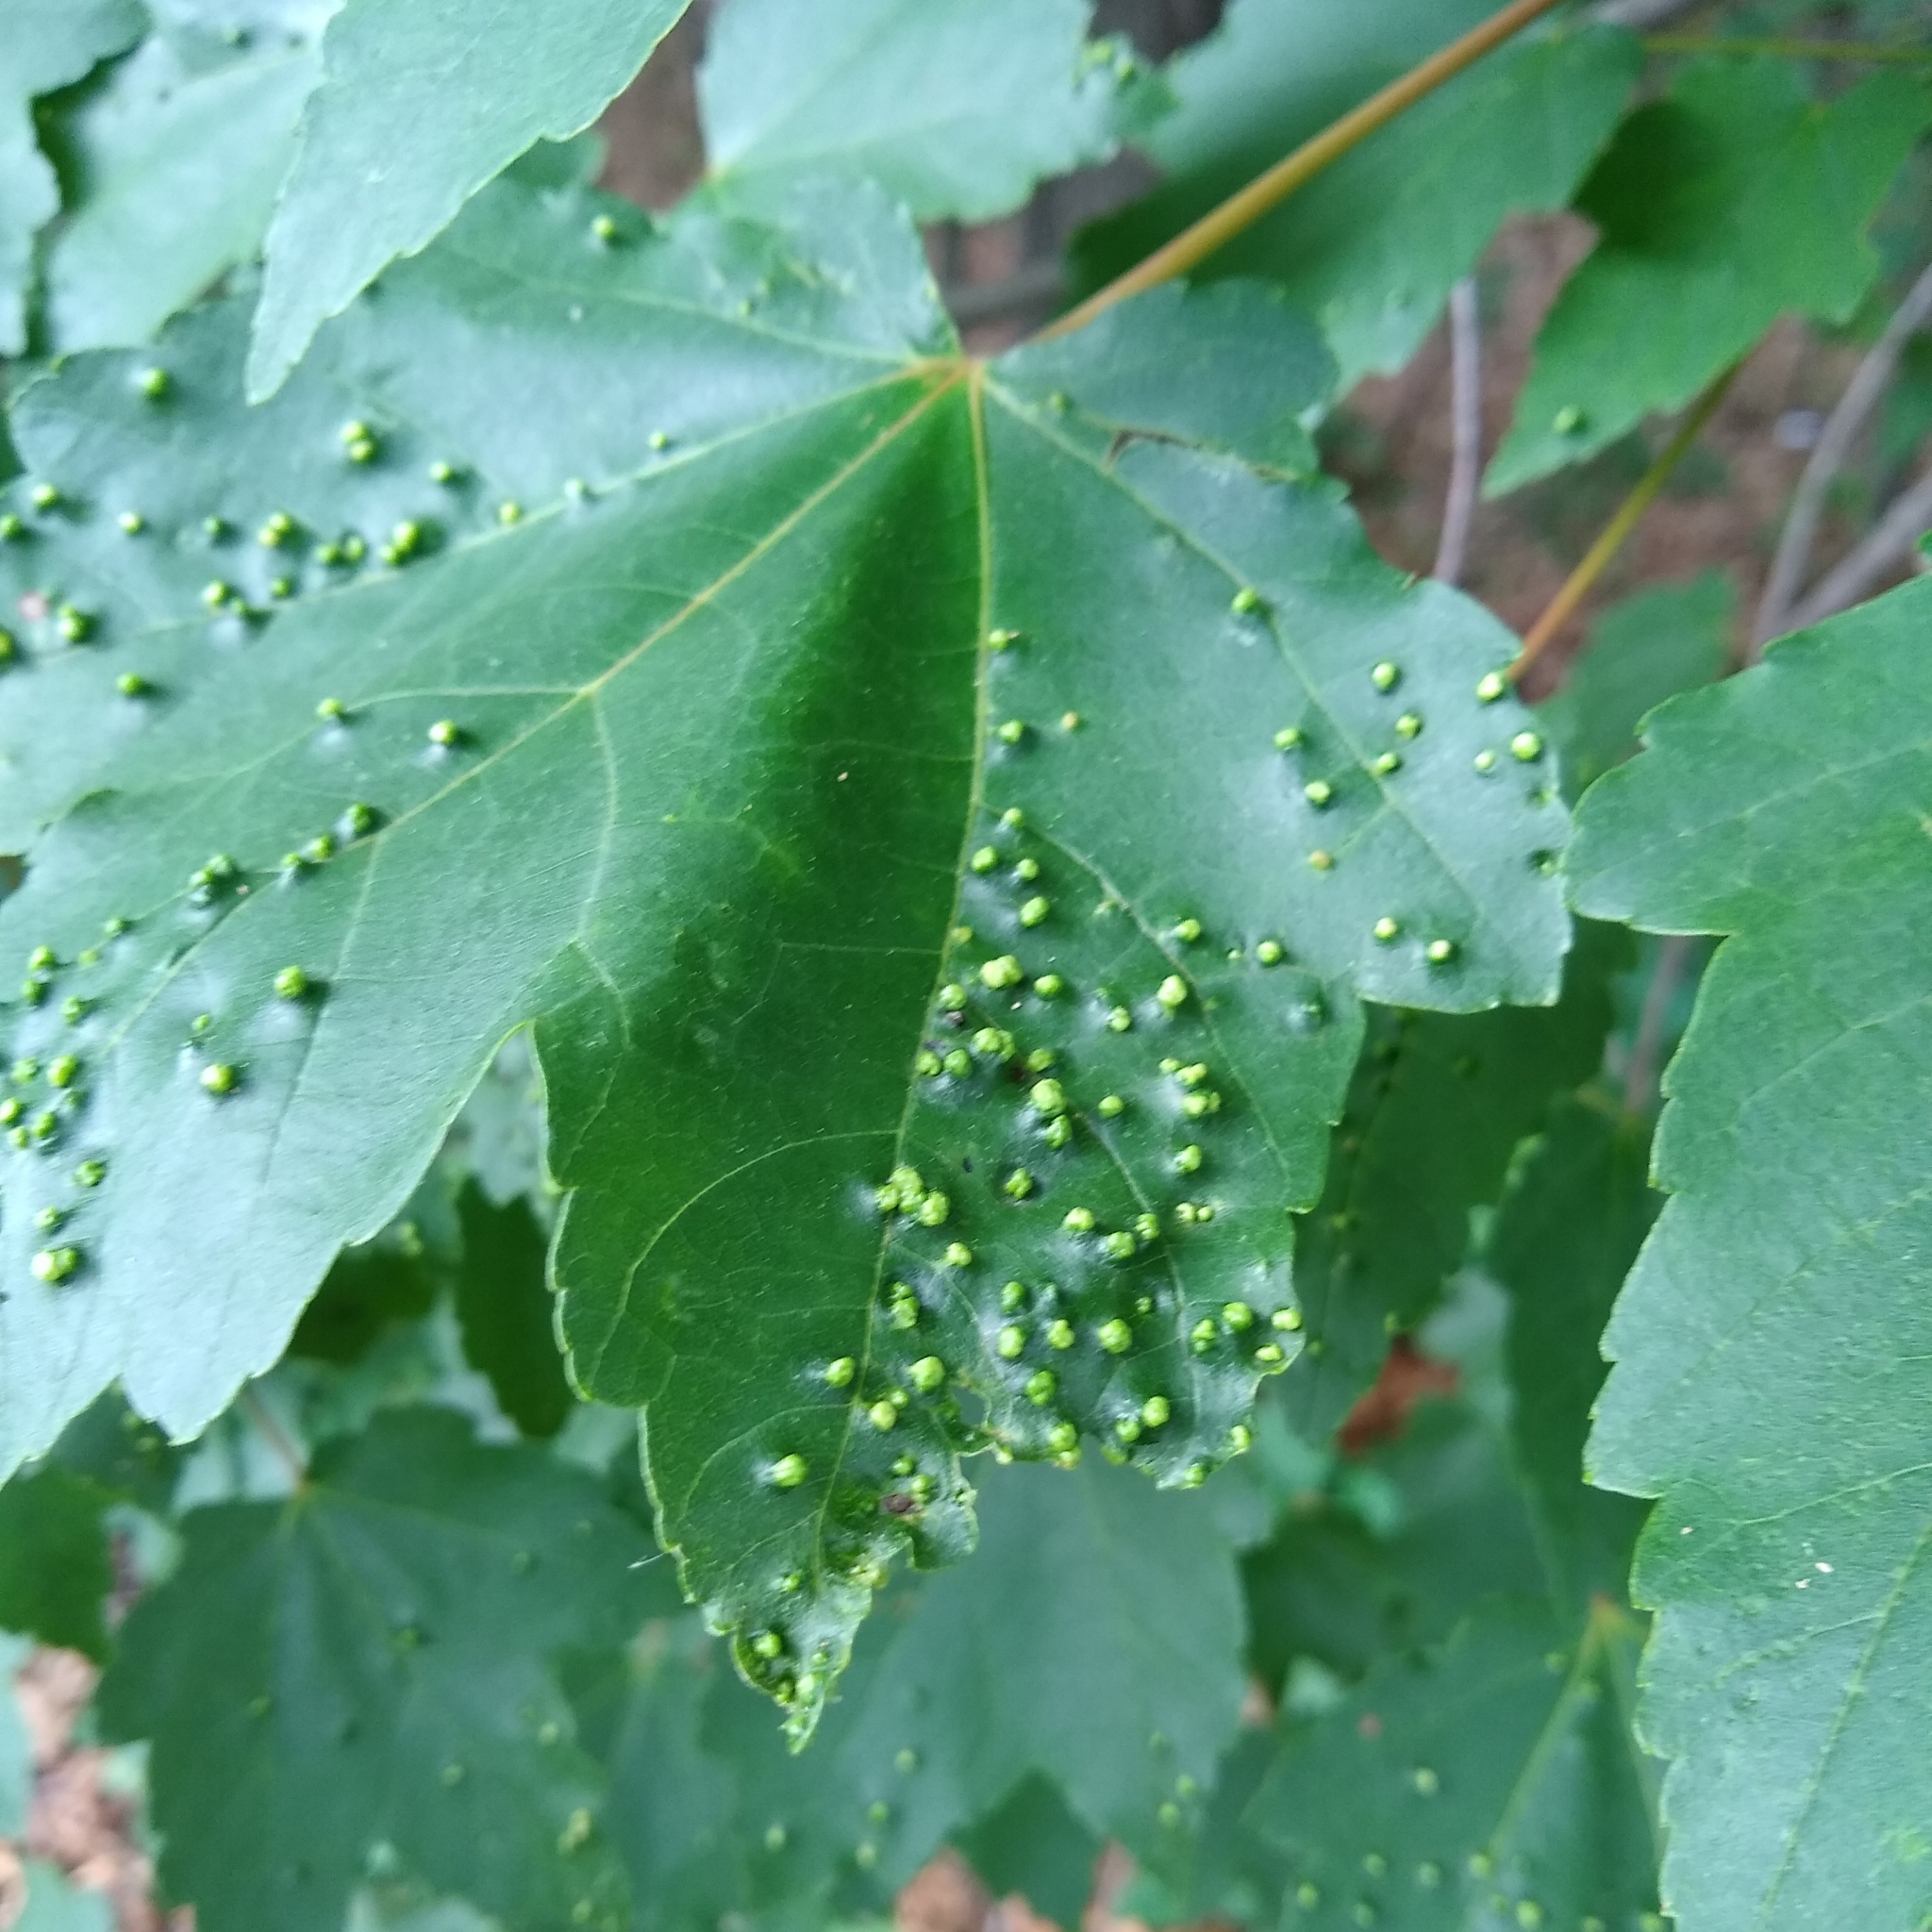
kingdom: Animalia
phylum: Arthropoda
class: Arachnida
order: Trombidiformes
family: Eriophyidae
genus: Vasates
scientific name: Vasates quadripedes
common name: Maple bladder gall mite
